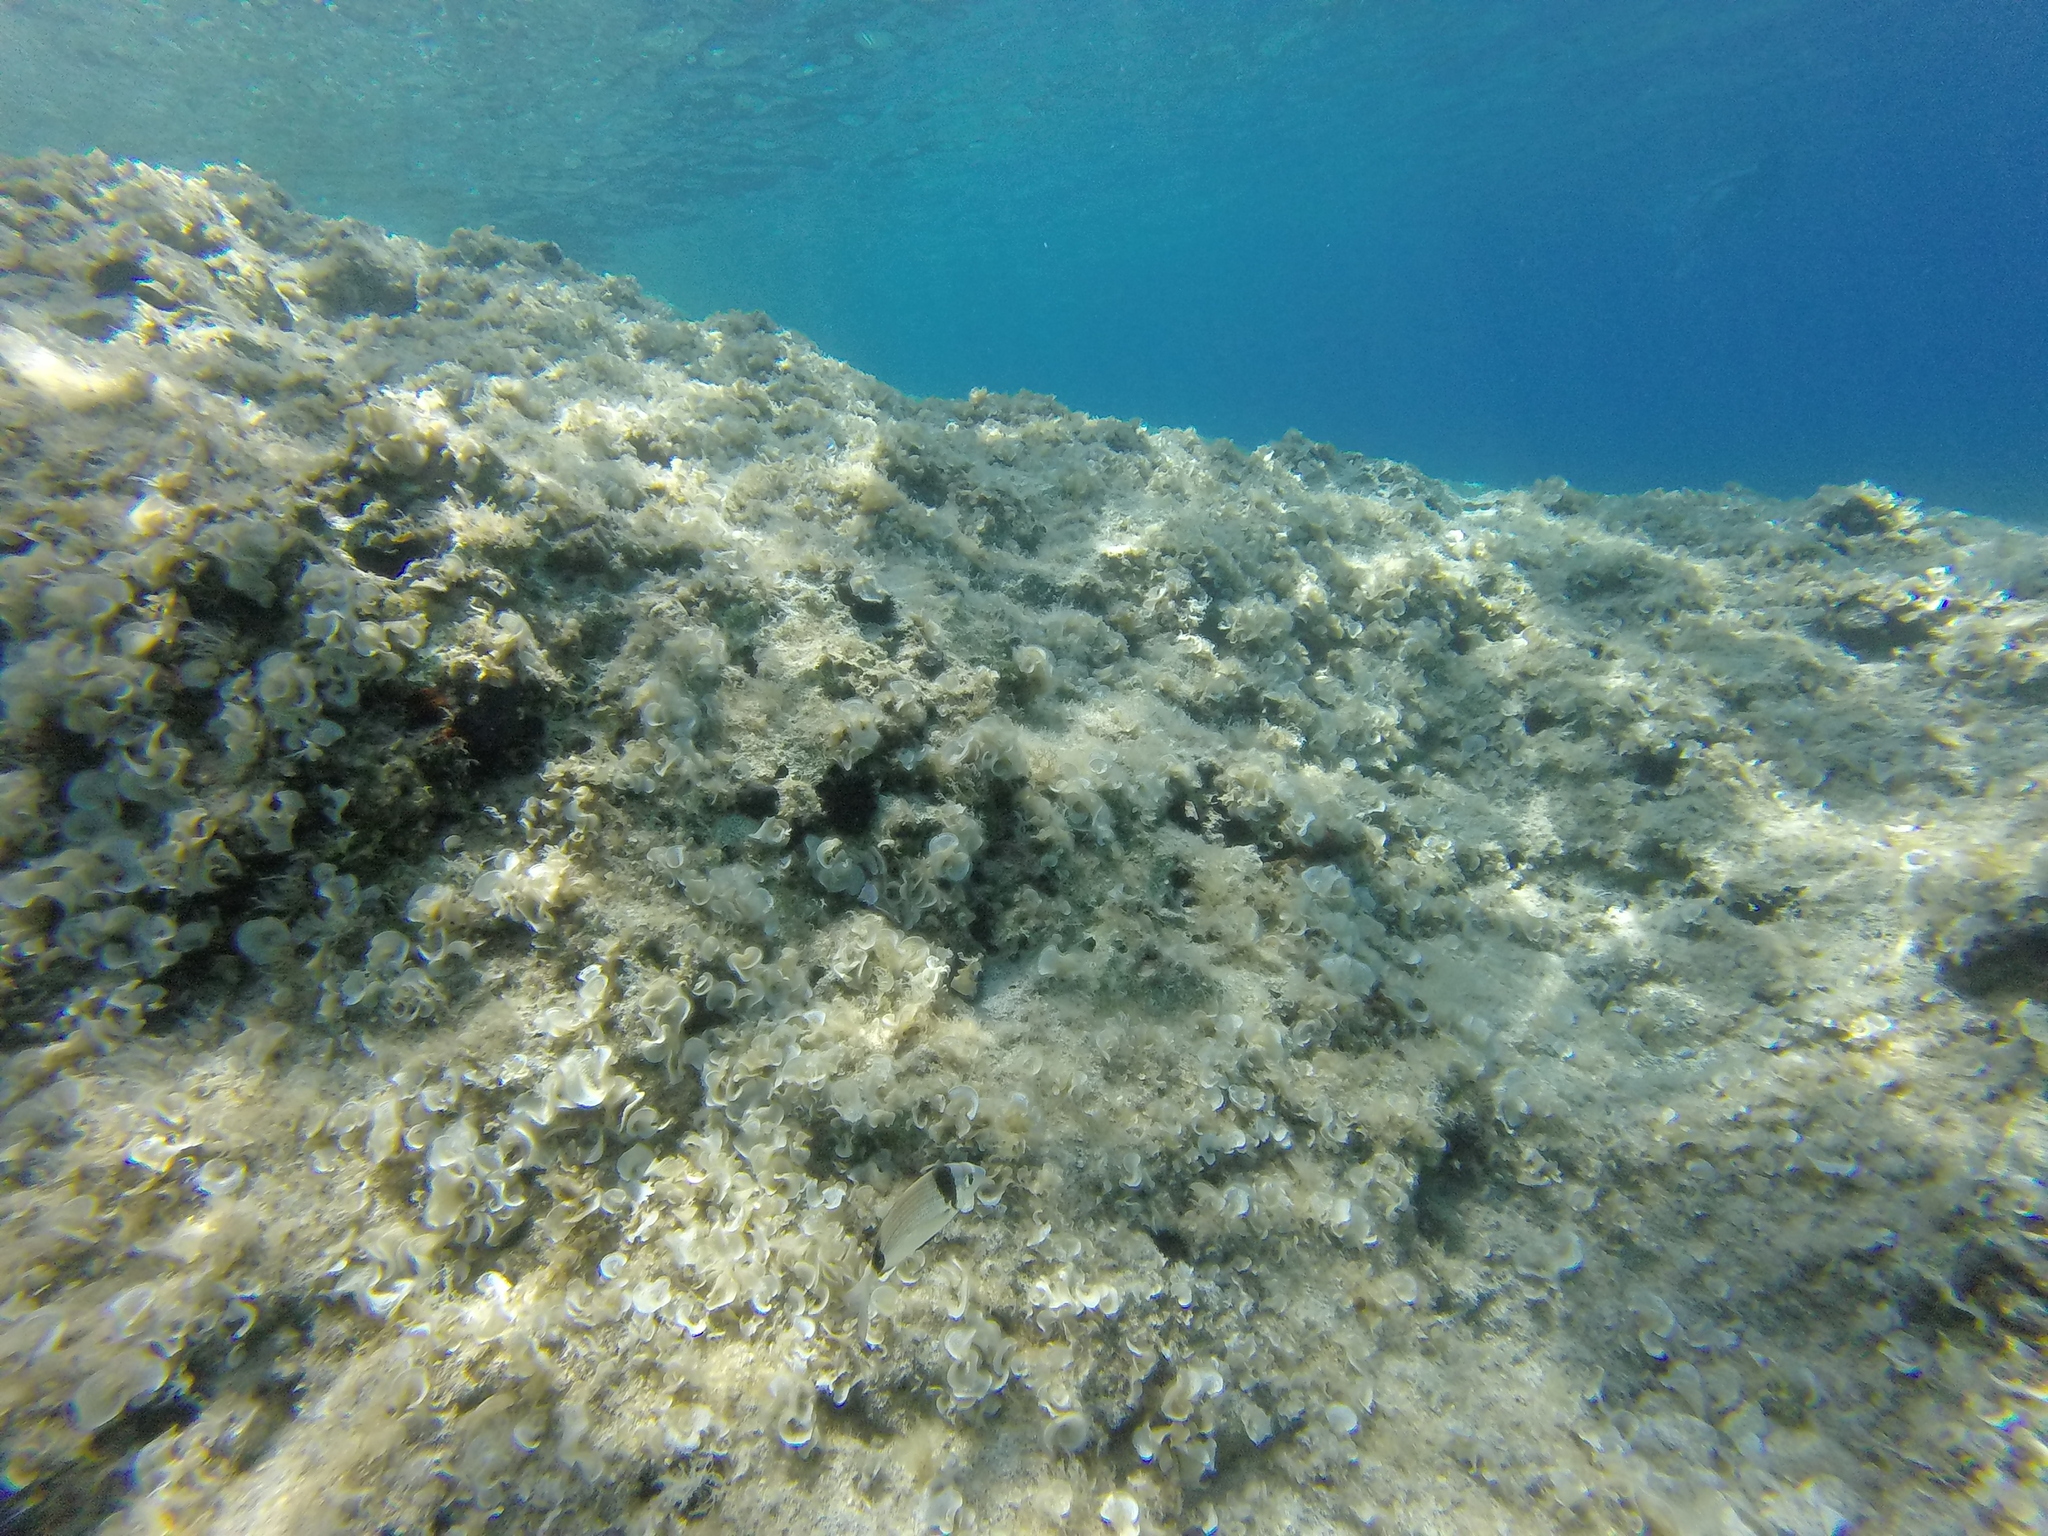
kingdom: Animalia
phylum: Chordata
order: Perciformes
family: Sparidae
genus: Diplodus
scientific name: Diplodus vulgaris
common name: Common two-banded seabream
